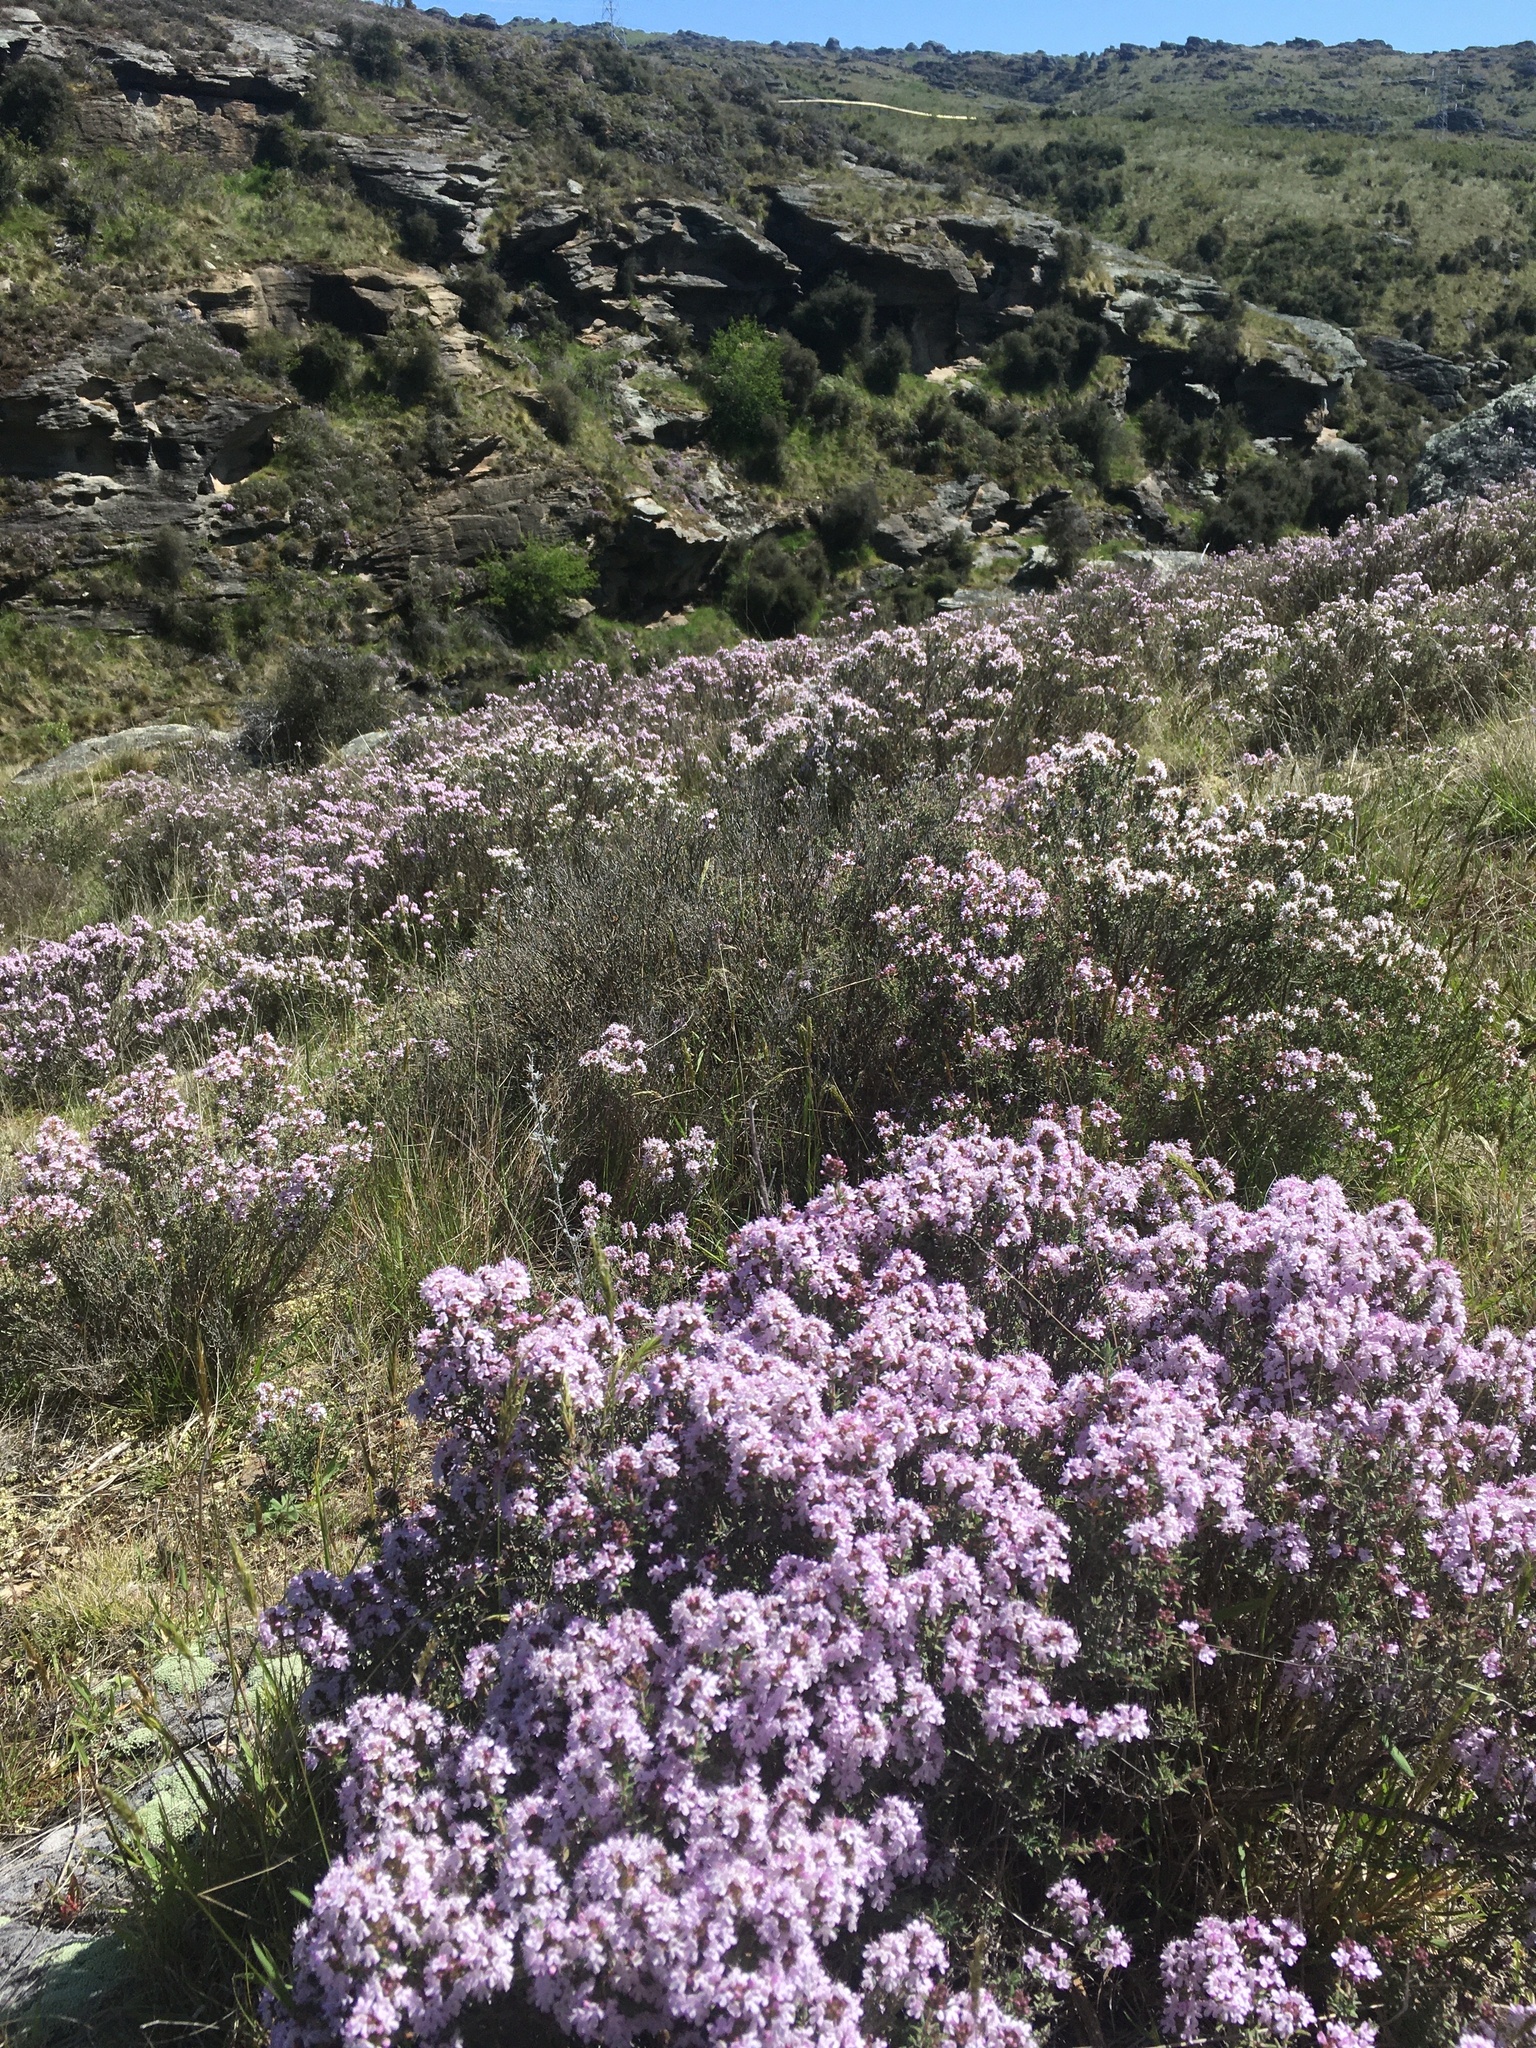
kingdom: Plantae
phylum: Tracheophyta
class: Magnoliopsida
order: Lamiales
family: Lamiaceae
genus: Thymus
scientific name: Thymus vulgaris
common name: Garden thyme
